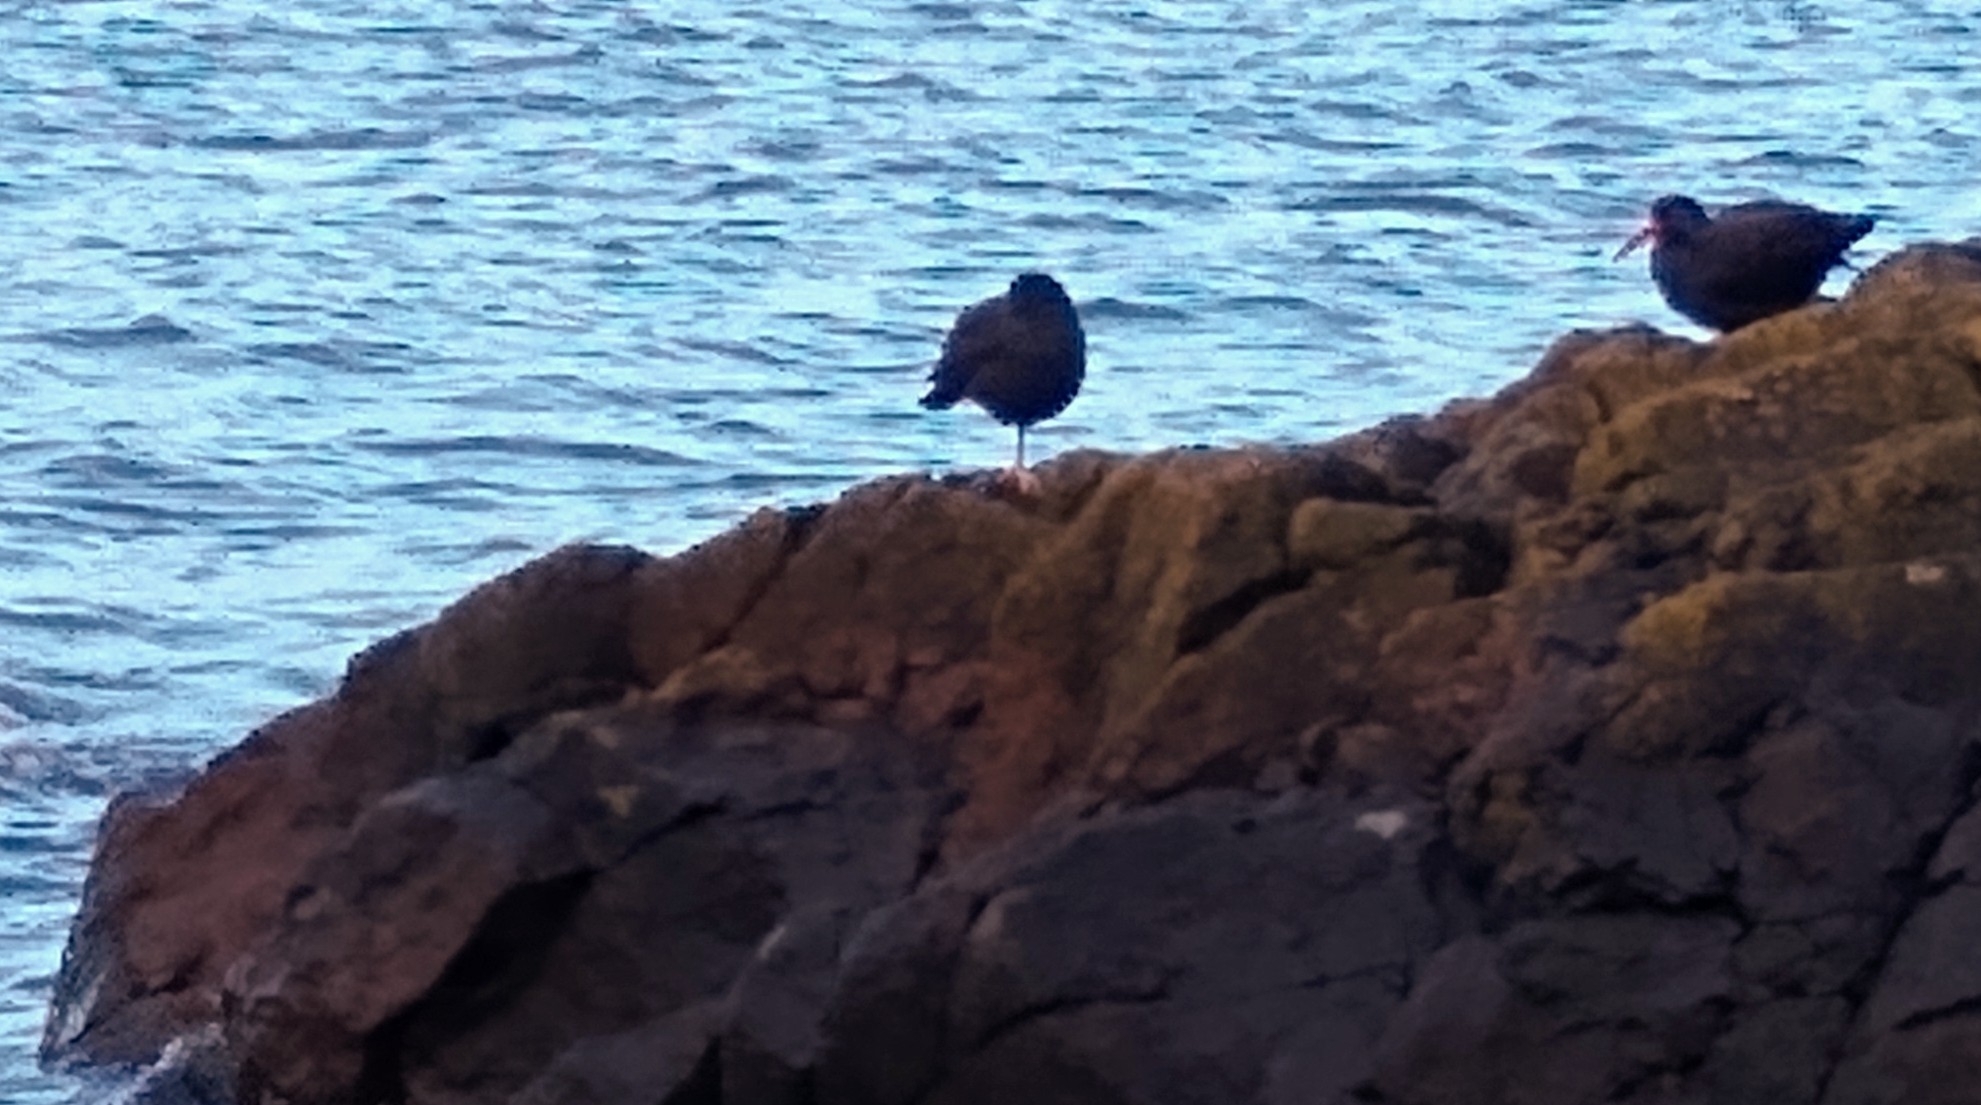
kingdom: Animalia
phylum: Chordata
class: Aves
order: Charadriiformes
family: Haematopodidae
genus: Haematopus
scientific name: Haematopus bachmani
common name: Black oystercatcher
